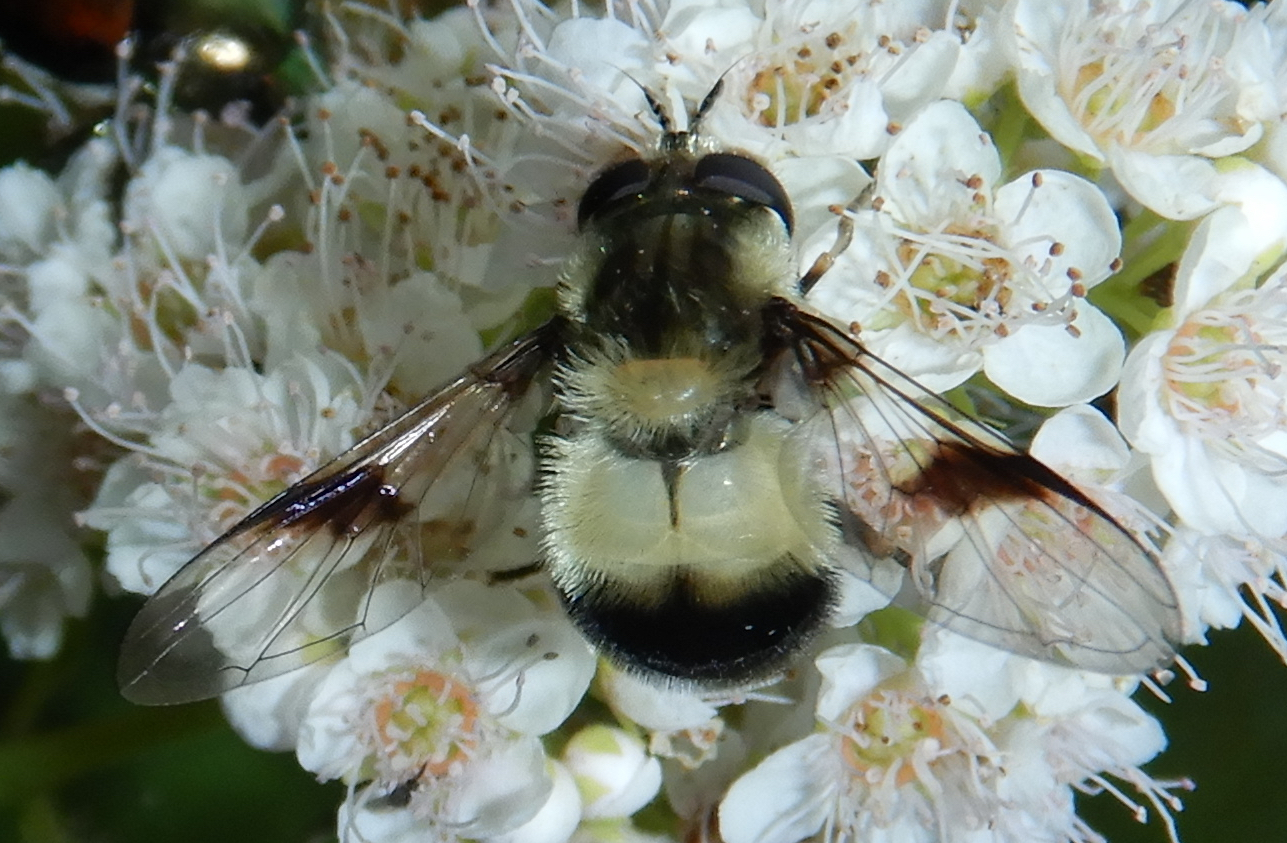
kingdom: Animalia
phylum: Arthropoda
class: Insecta
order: Diptera
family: Syrphidae
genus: Leucozona
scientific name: Leucozona americana
